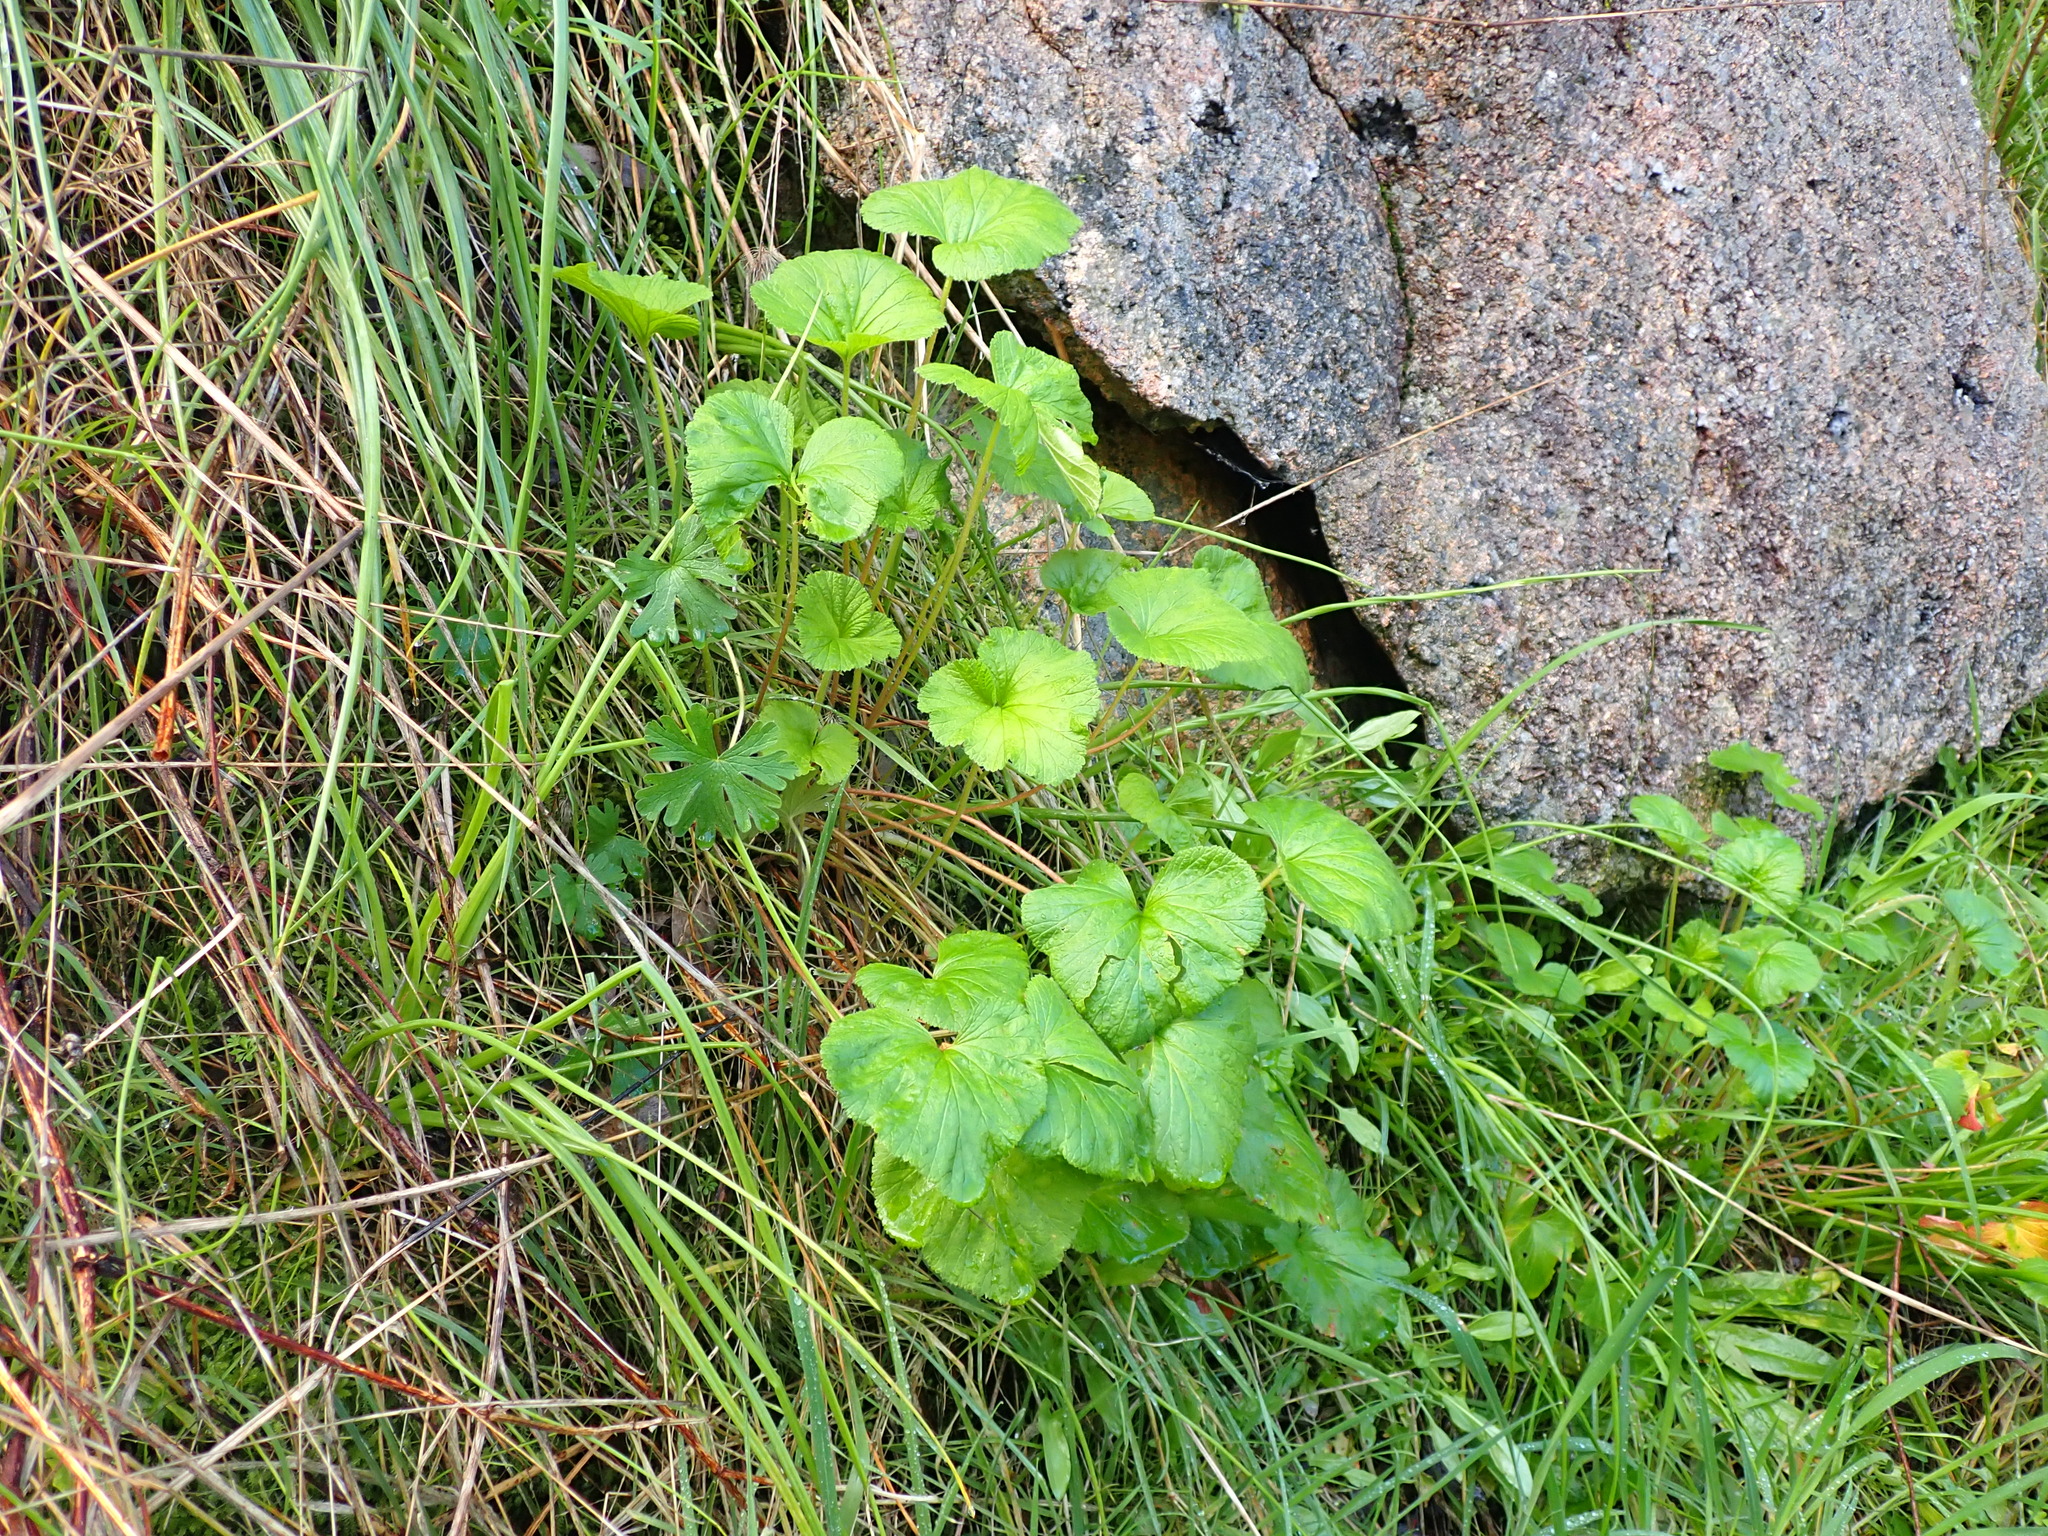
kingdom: Plantae
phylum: Tracheophyta
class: Magnoliopsida
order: Geraniales
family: Geraniaceae
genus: Pelargonium
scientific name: Pelargonium australe
